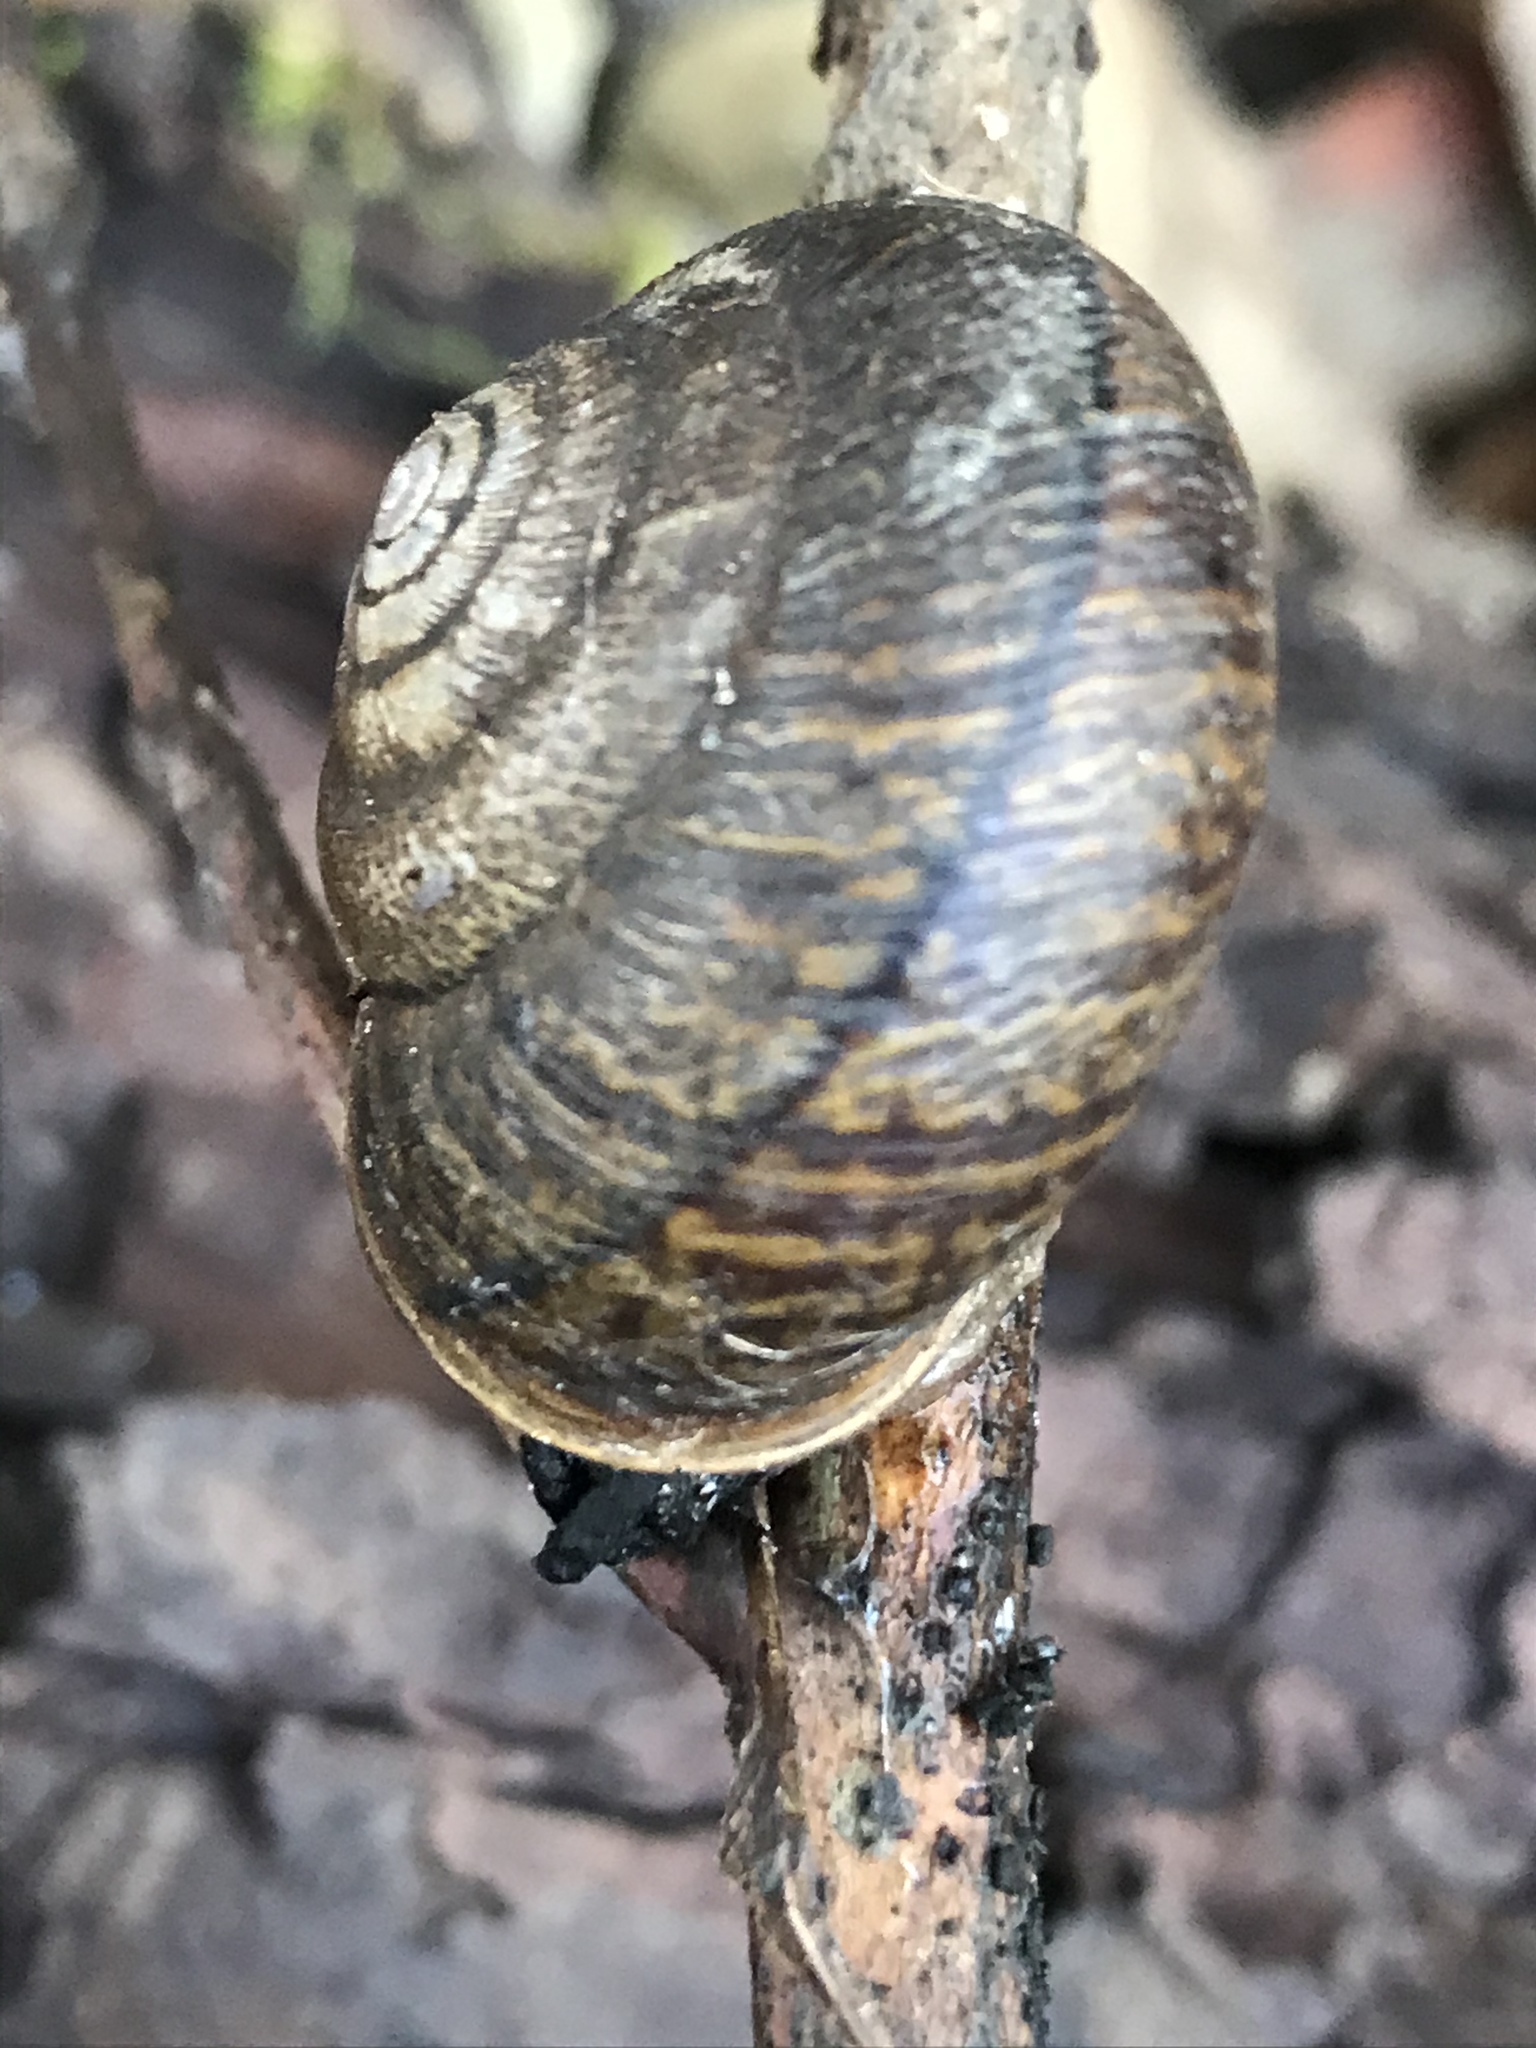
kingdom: Animalia
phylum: Mollusca
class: Gastropoda
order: Stylommatophora
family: Xanthonychidae
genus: Helminthoglypta
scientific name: Helminthoglypta arrosa
